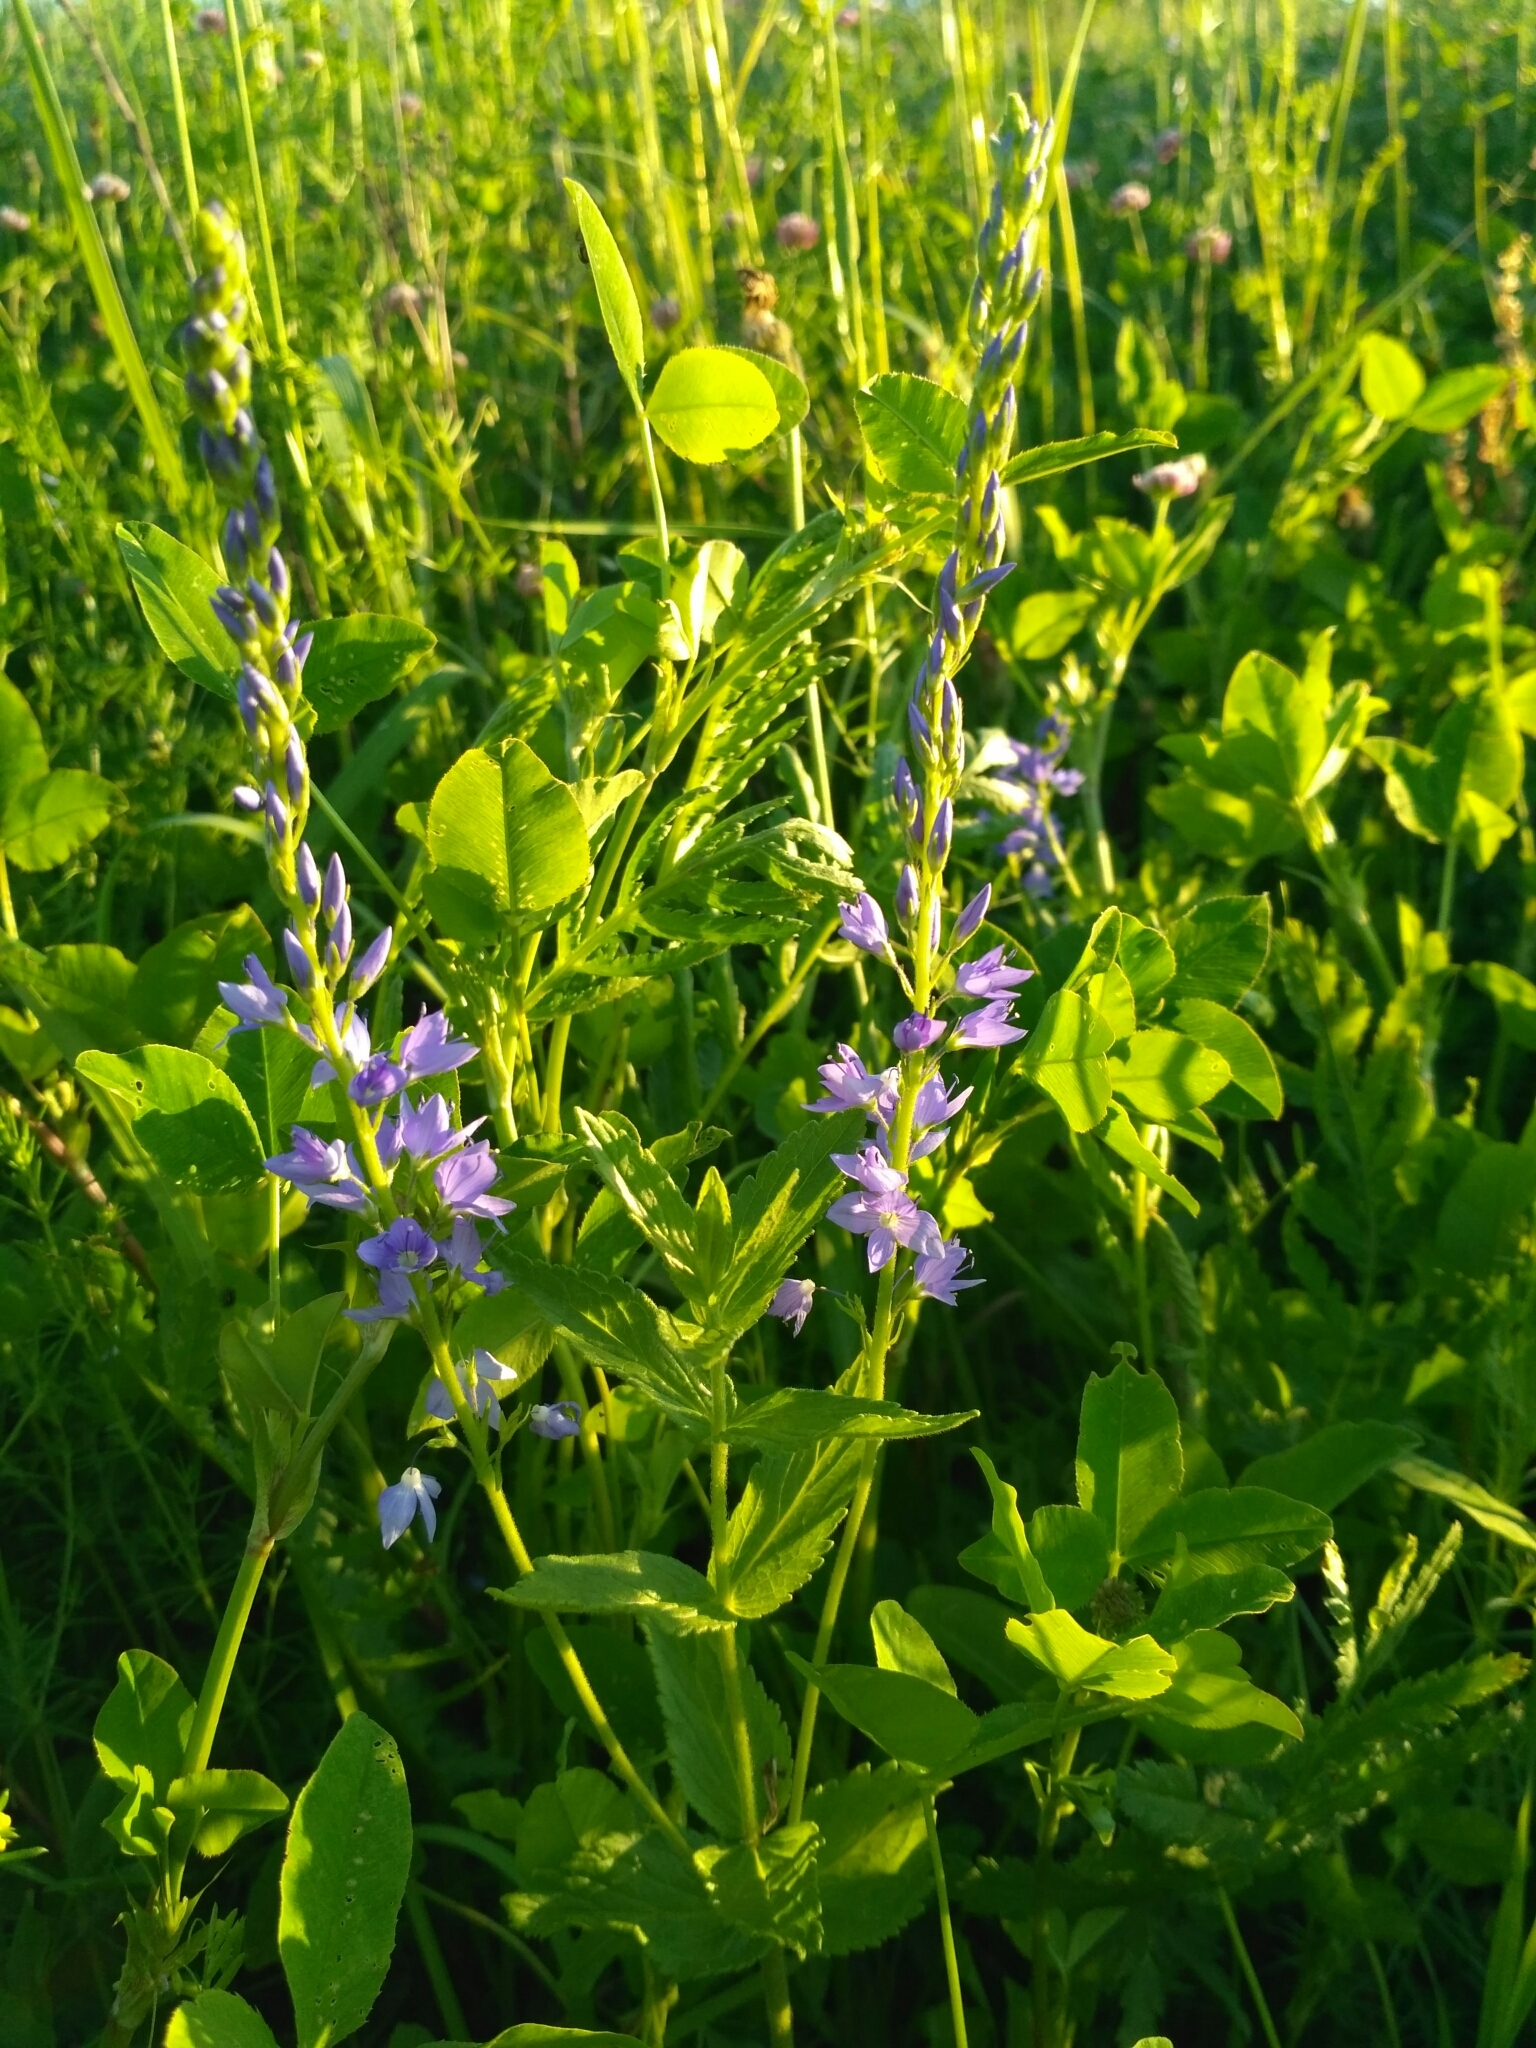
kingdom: Plantae
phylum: Tracheophyta
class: Magnoliopsida
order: Lamiales
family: Plantaginaceae
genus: Veronica
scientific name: Veronica teucrium
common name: Large speedwell
